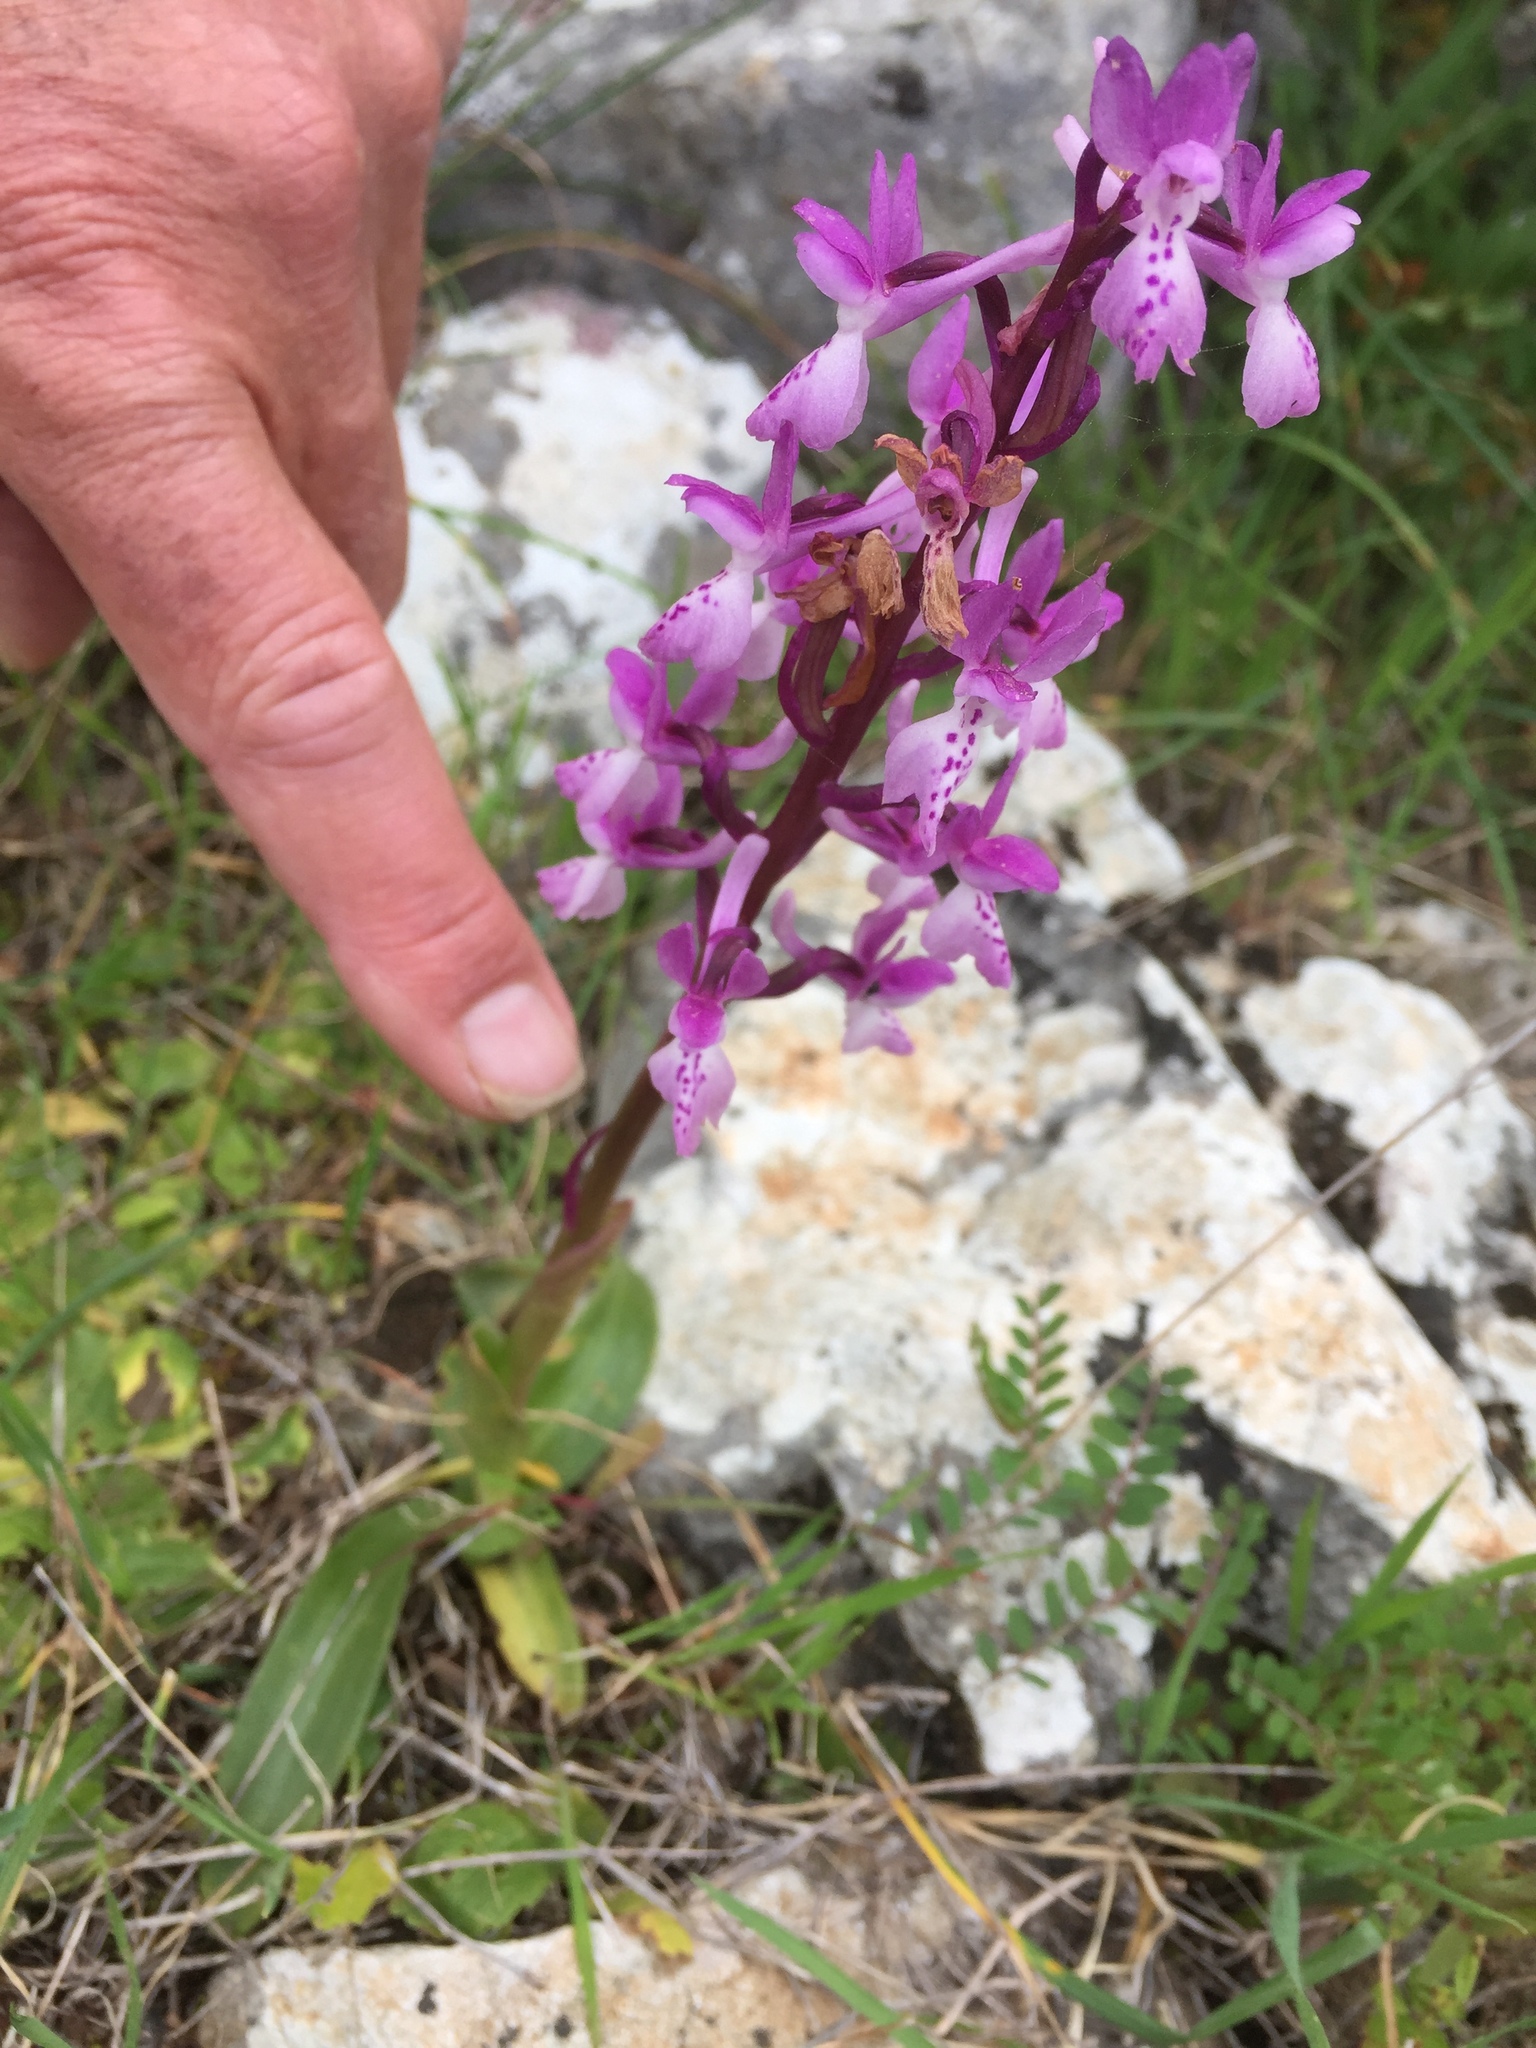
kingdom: Plantae
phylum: Tracheophyta
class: Liliopsida
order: Asparagales
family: Orchidaceae
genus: Orchis
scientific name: Orchis mascula
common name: Early-purple orchid
